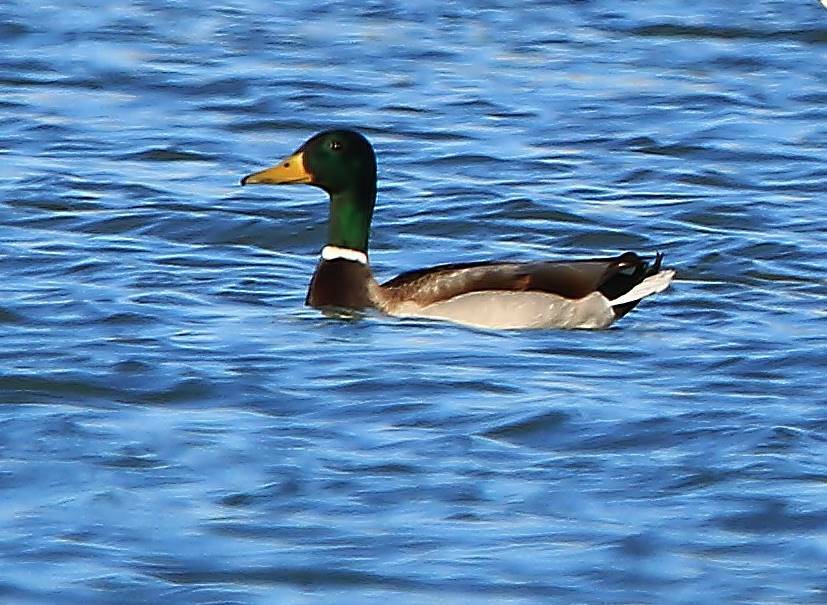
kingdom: Animalia
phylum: Chordata
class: Aves
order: Anseriformes
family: Anatidae
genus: Anas
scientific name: Anas platyrhynchos
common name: Mallard
